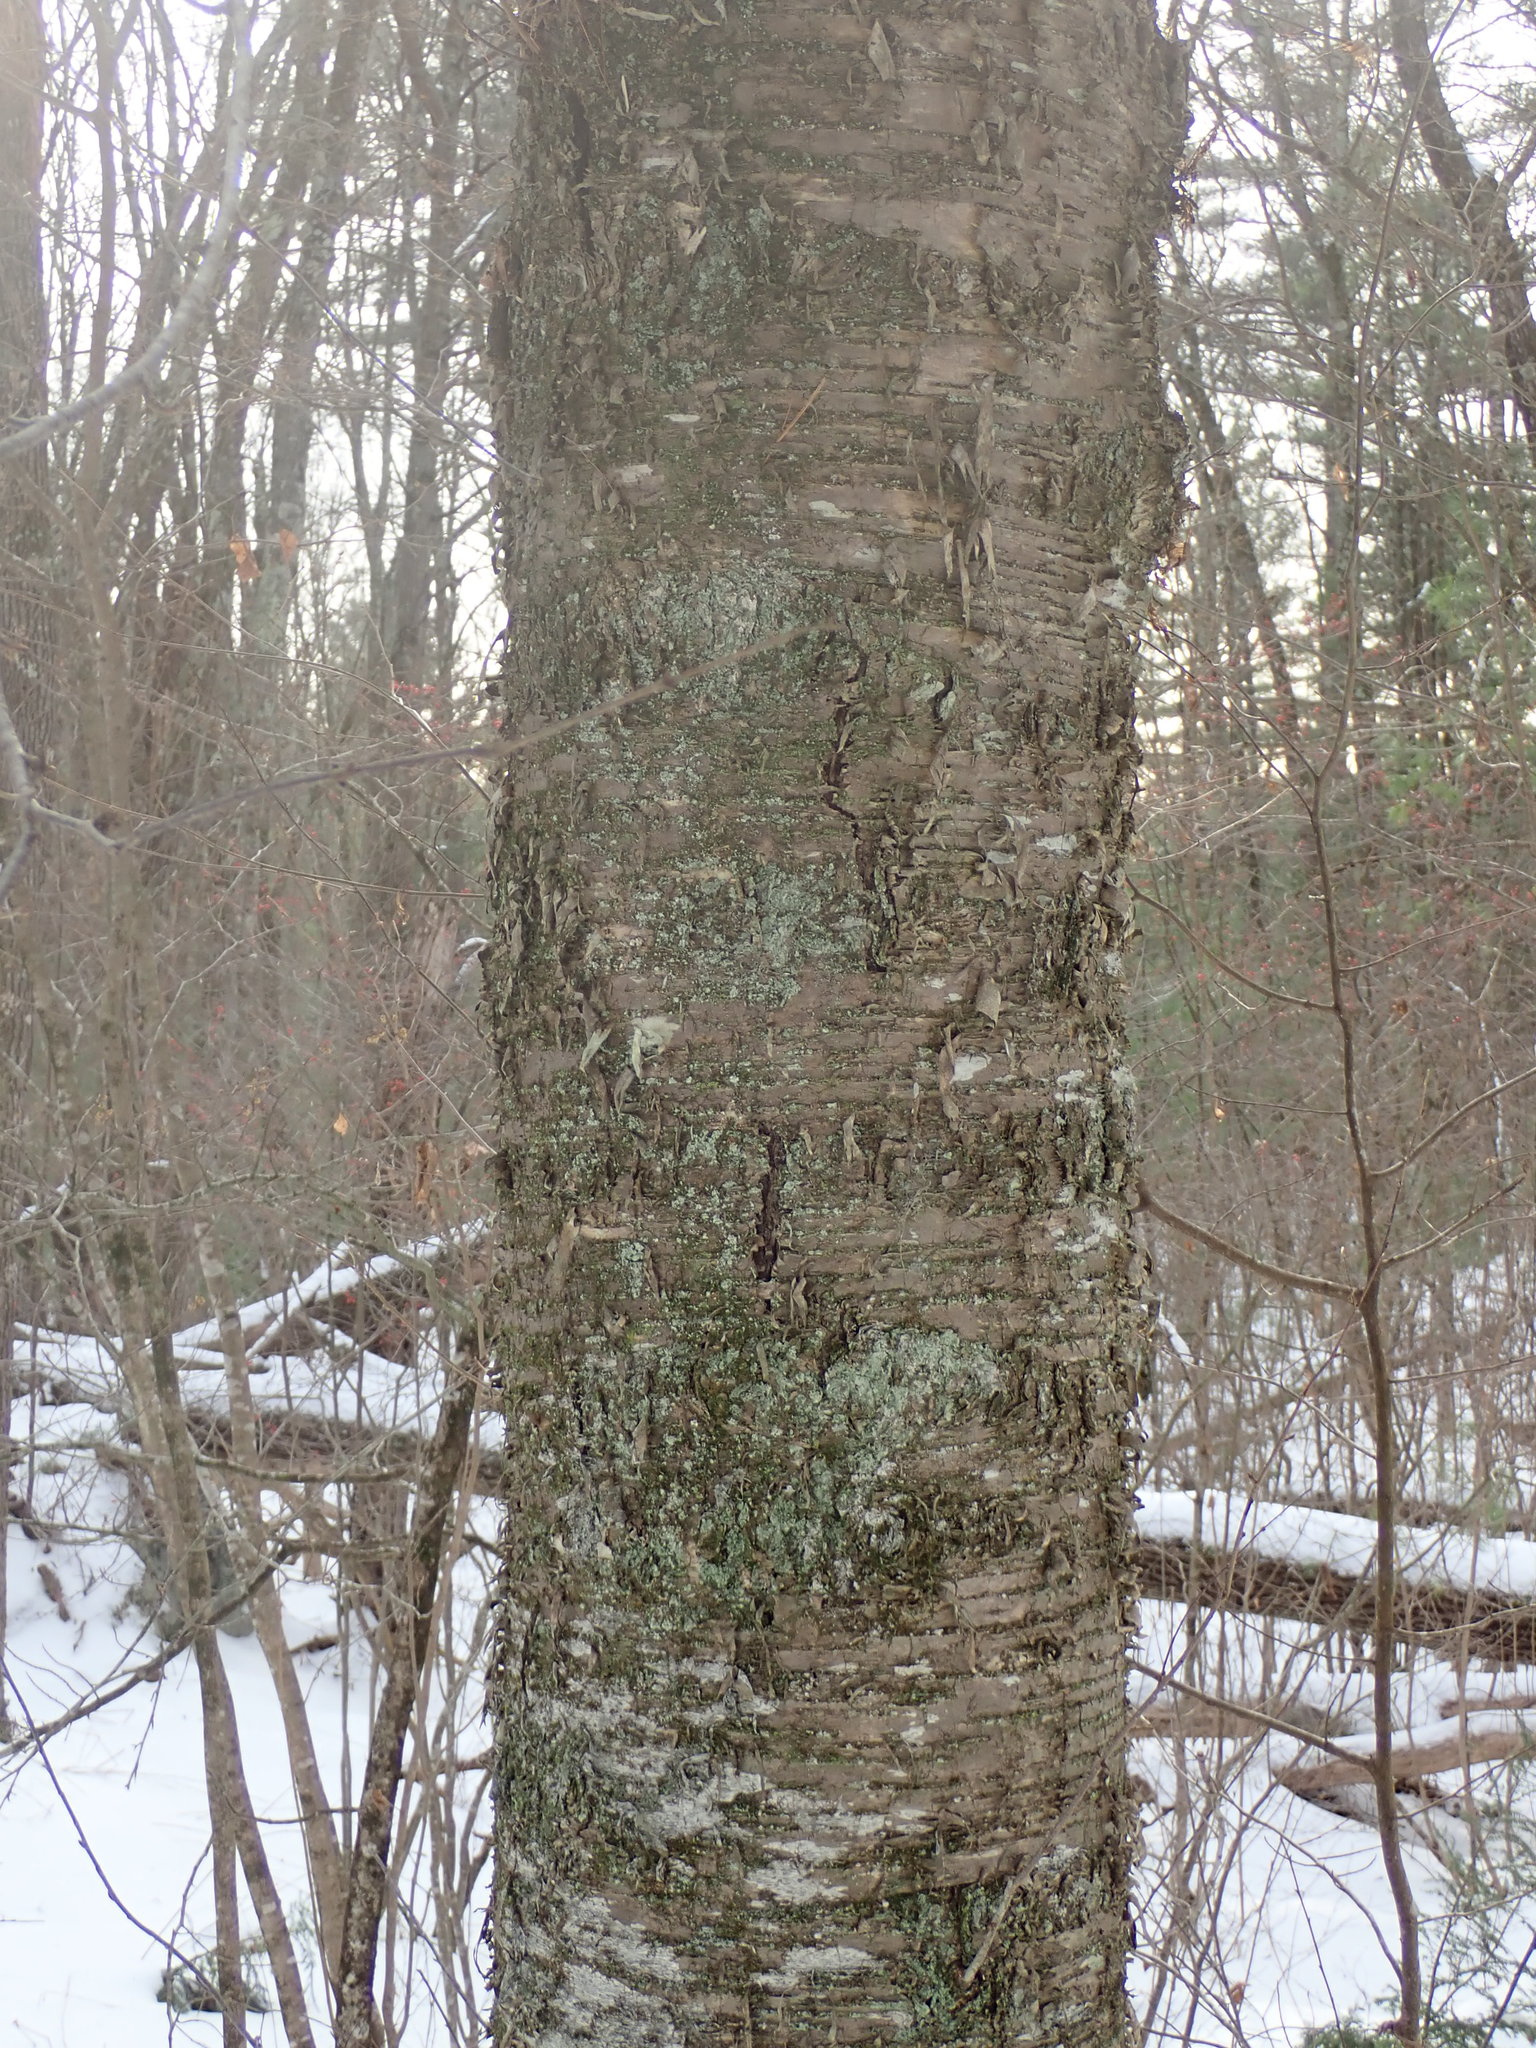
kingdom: Plantae
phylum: Tracheophyta
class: Magnoliopsida
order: Fagales
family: Betulaceae
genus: Betula
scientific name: Betula alleghaniensis
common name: Yellow birch
